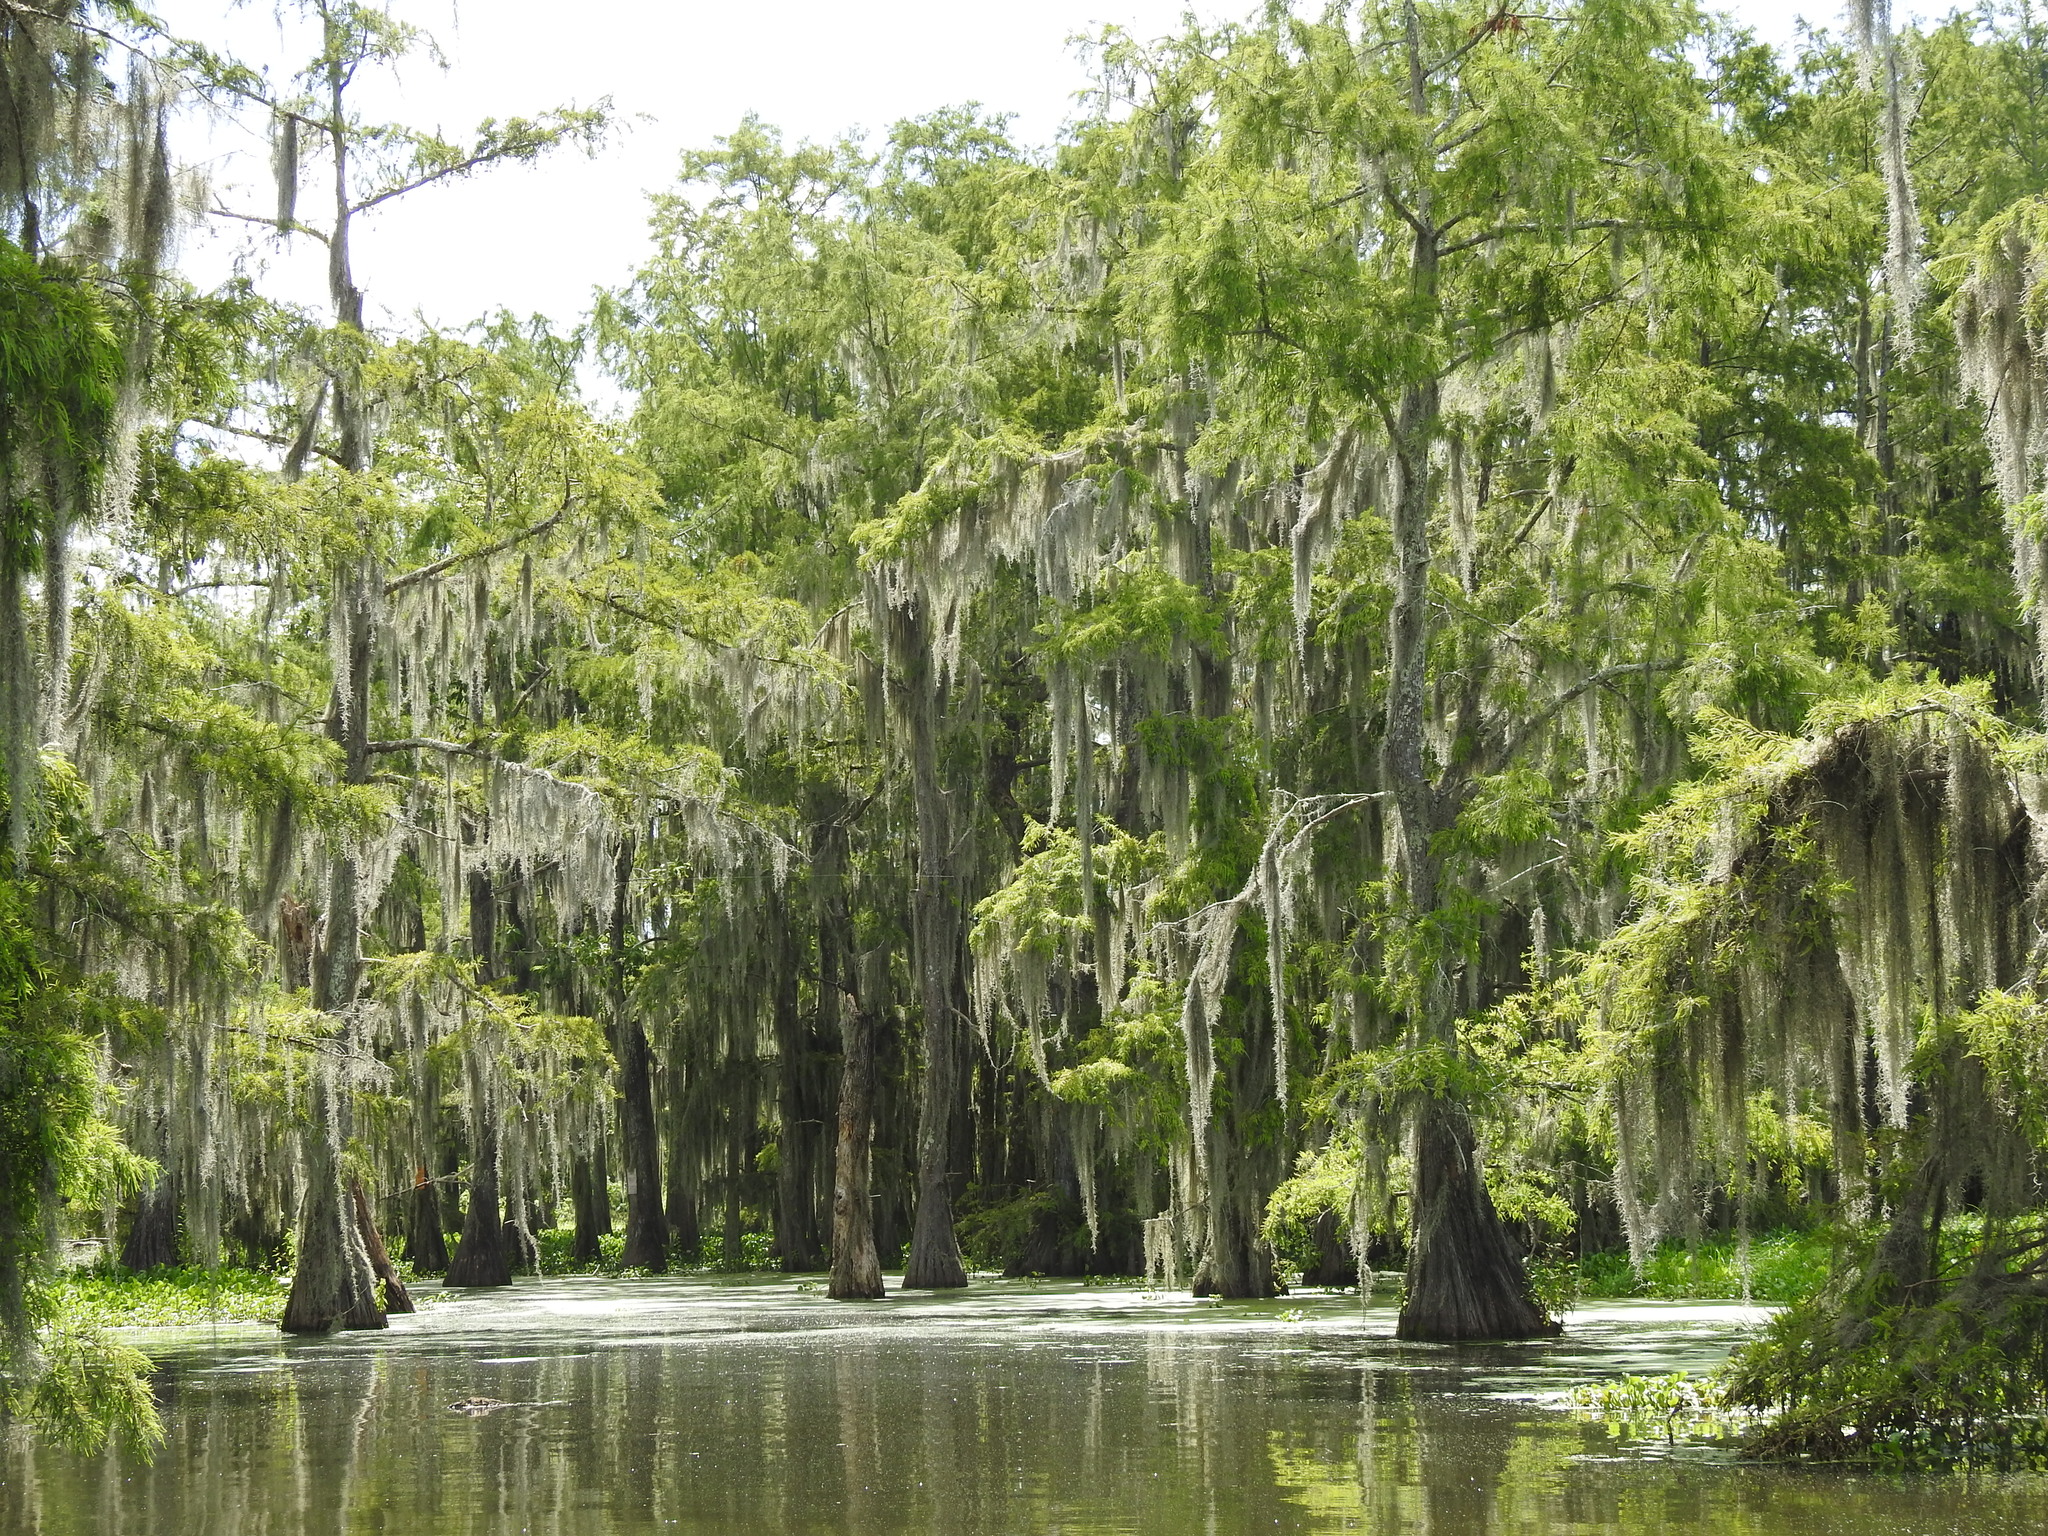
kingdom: Plantae
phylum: Tracheophyta
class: Pinopsida
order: Pinales
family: Cupressaceae
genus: Taxodium
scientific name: Taxodium distichum
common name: Bald cypress
